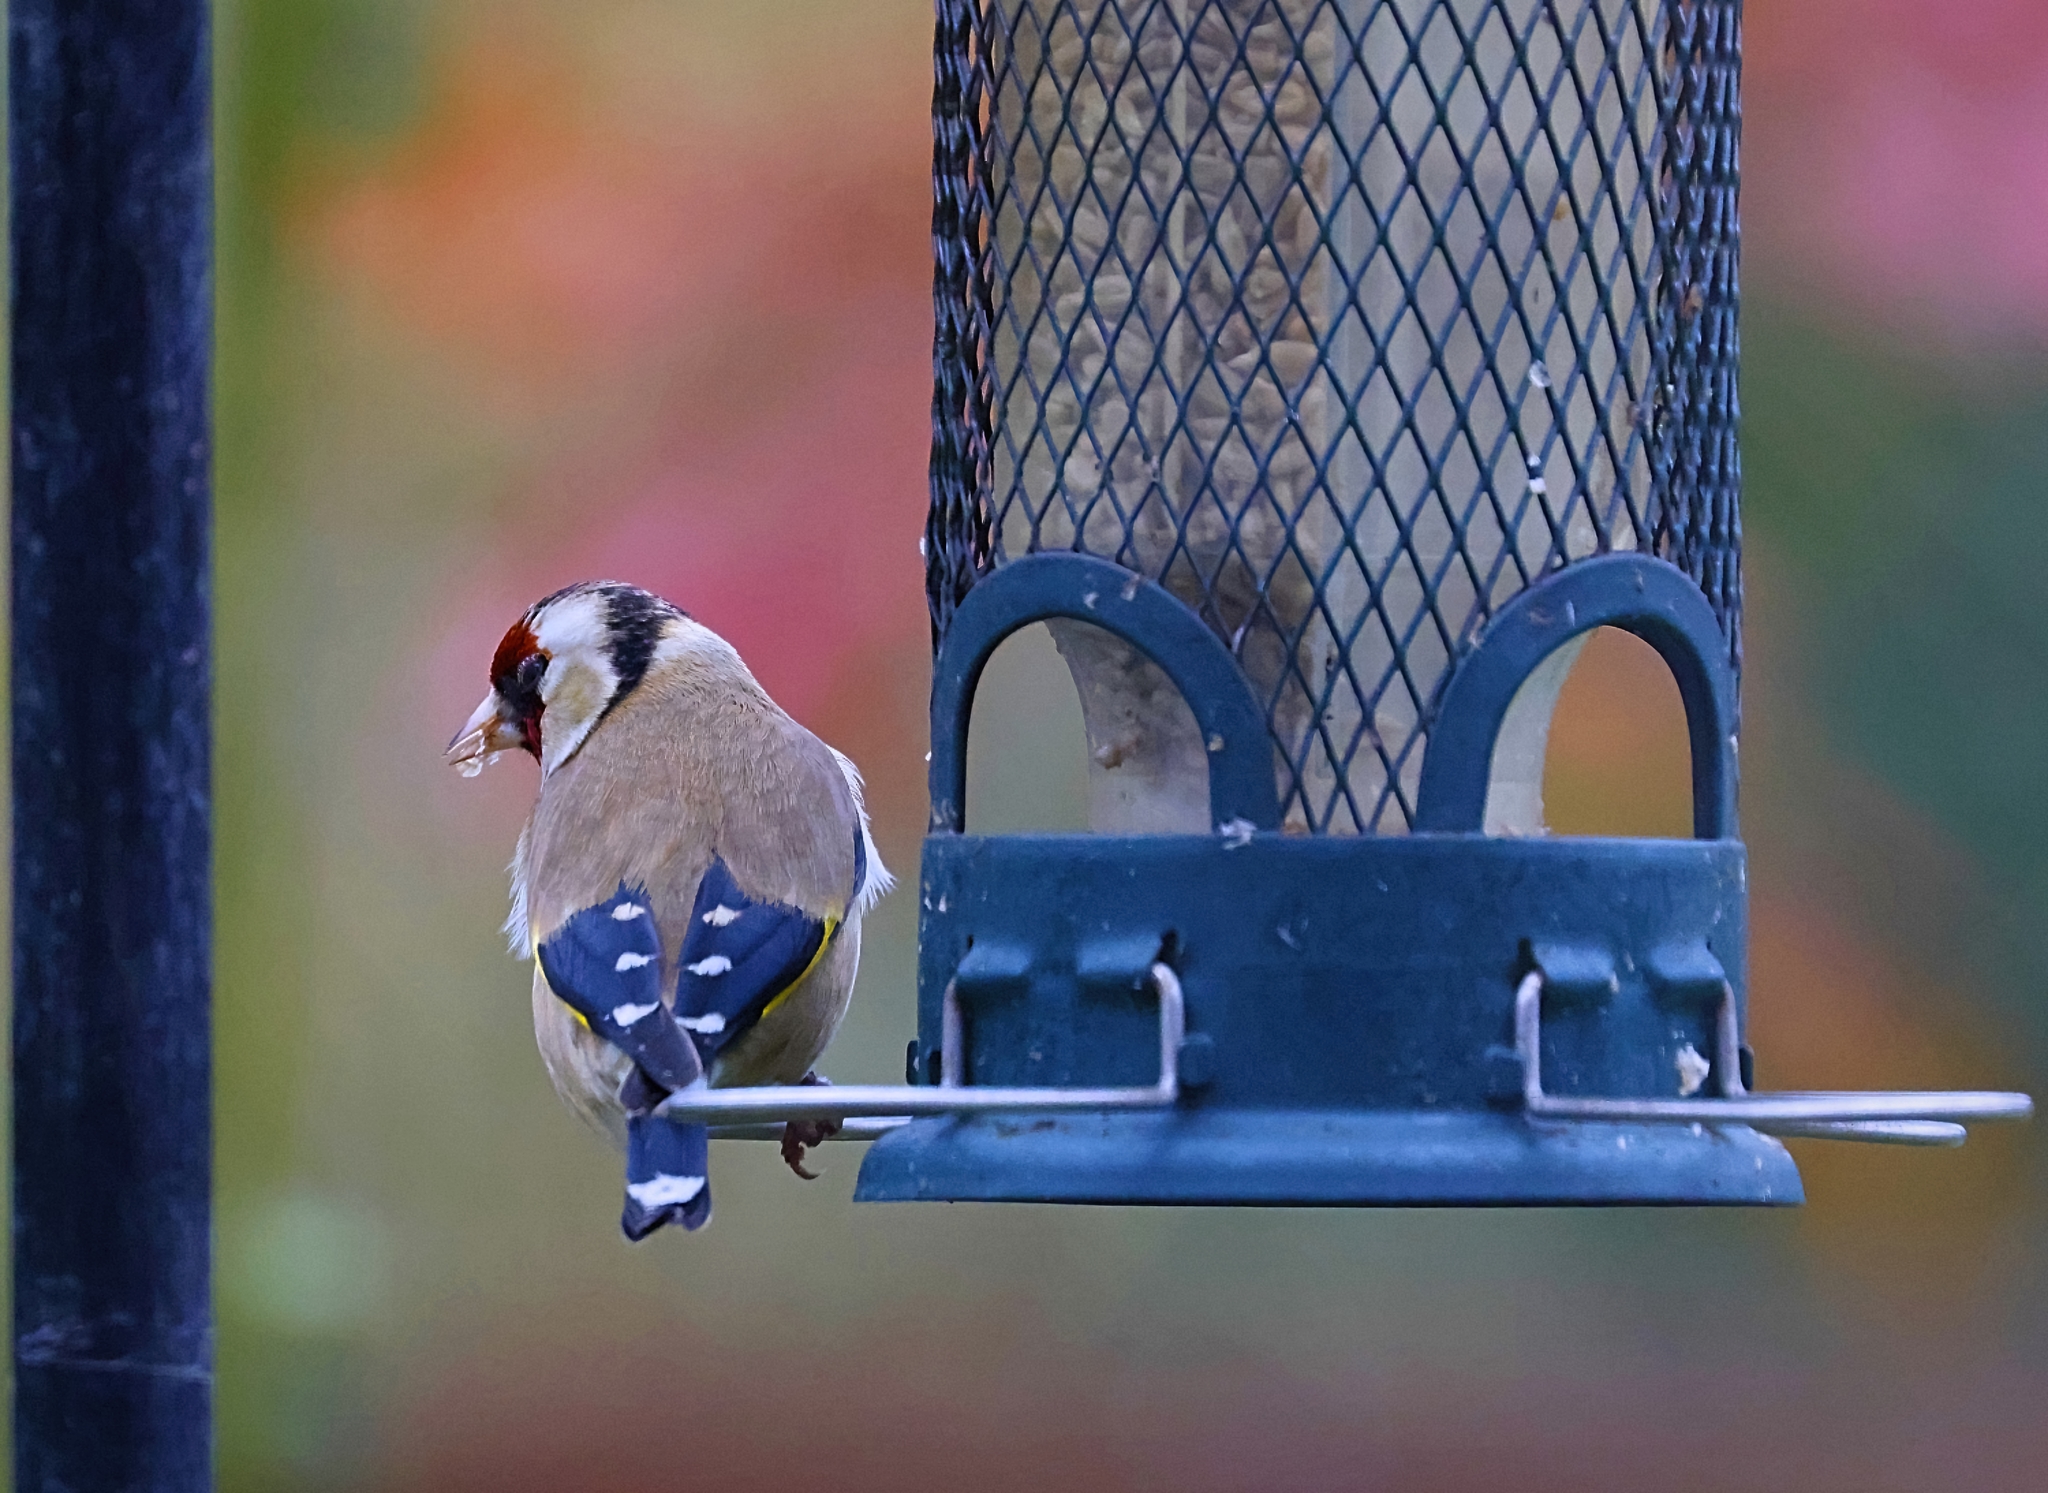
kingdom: Animalia
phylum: Chordata
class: Aves
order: Passeriformes
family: Fringillidae
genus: Carduelis
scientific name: Carduelis carduelis
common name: European goldfinch
